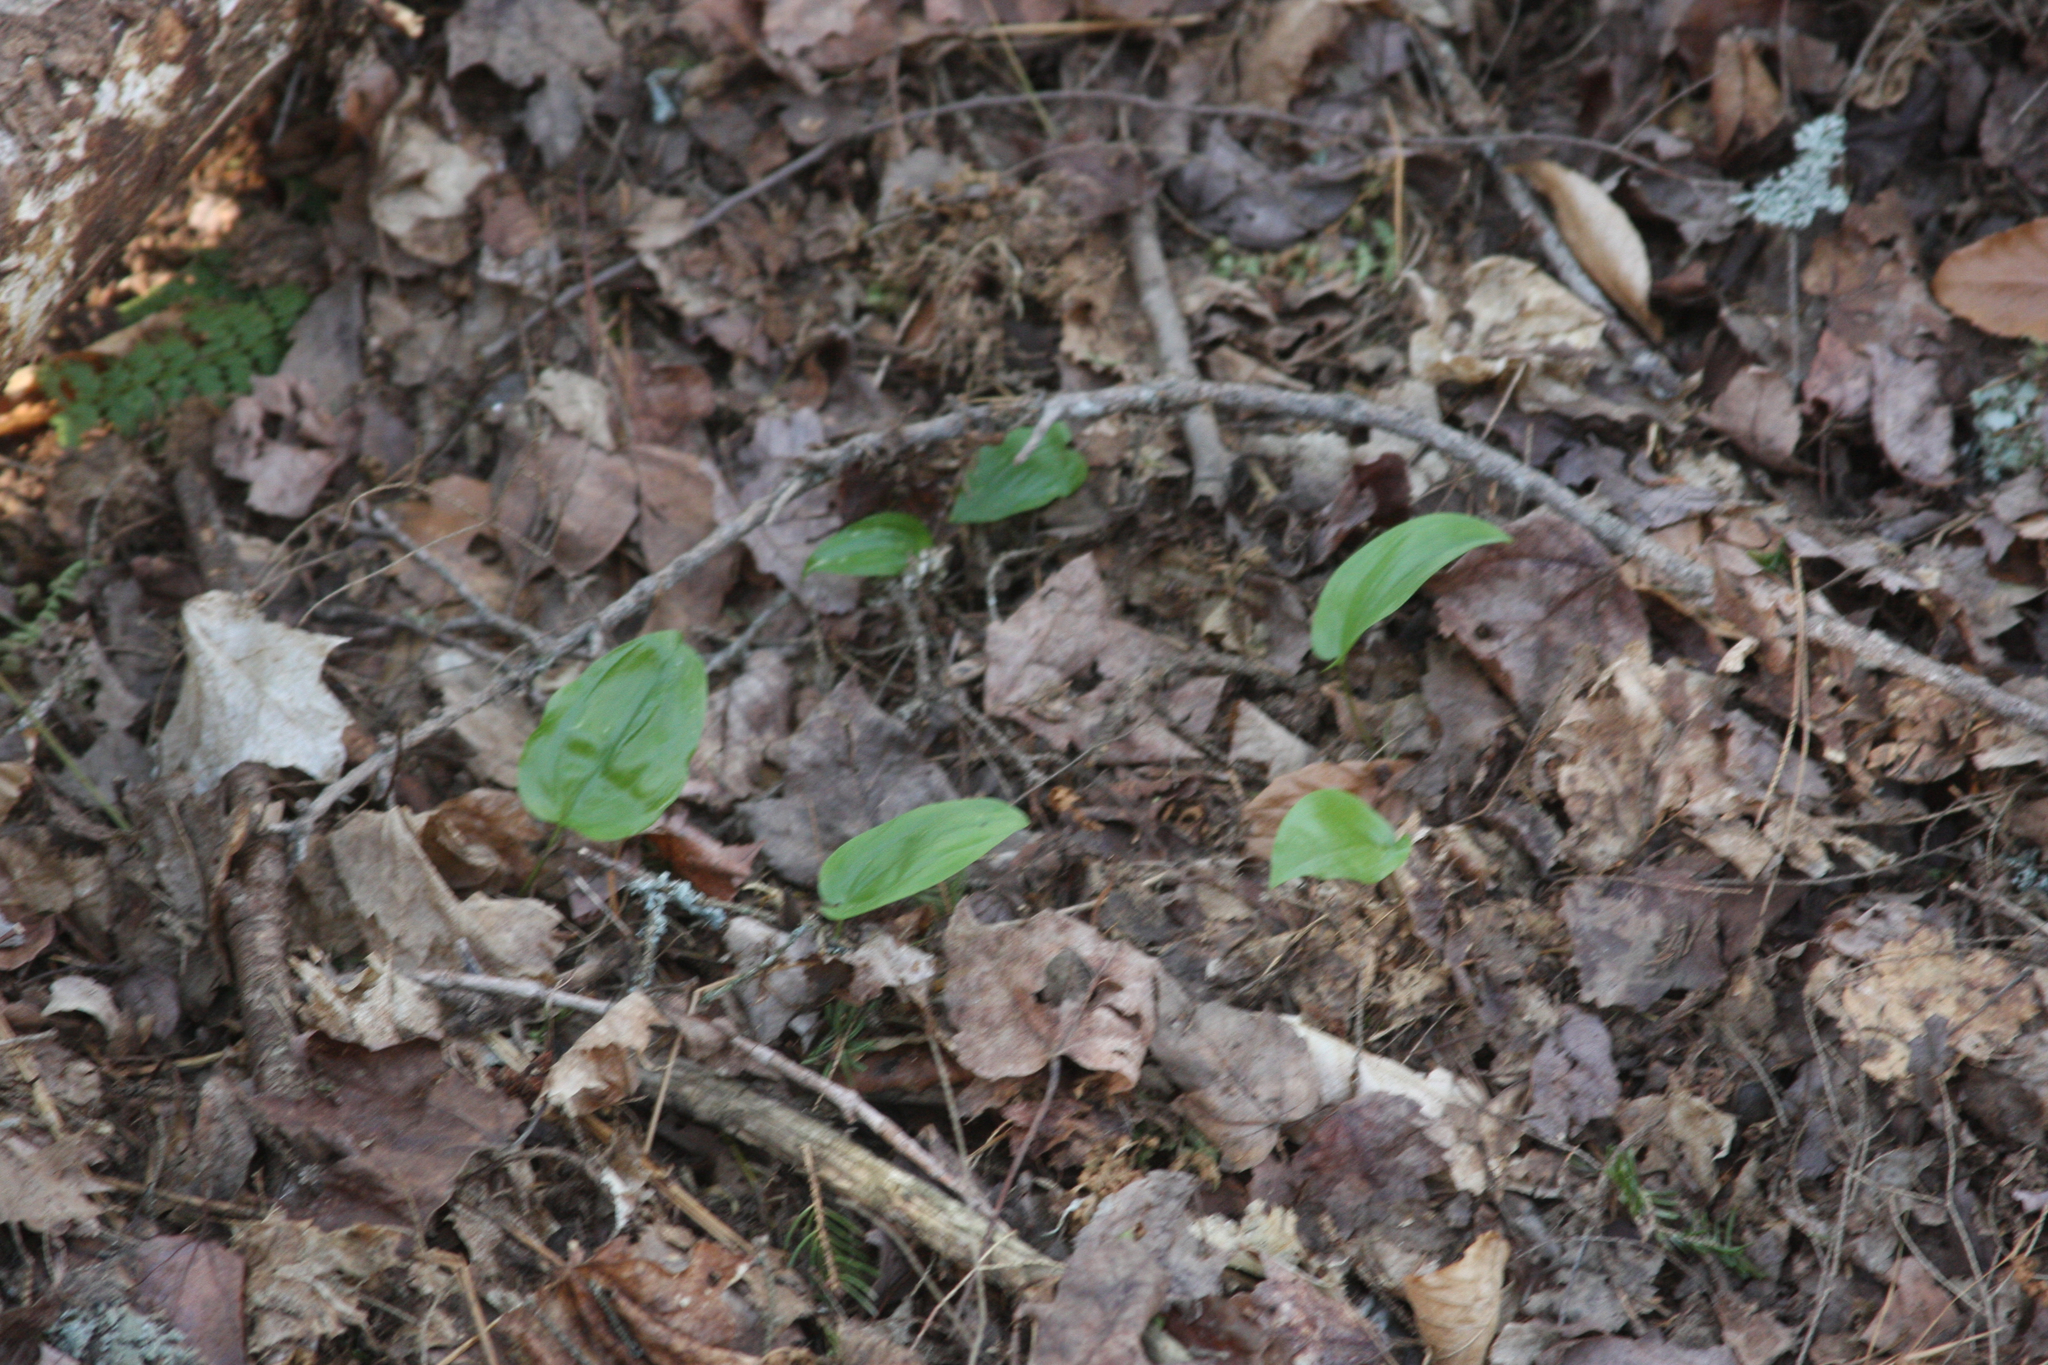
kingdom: Plantae
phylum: Tracheophyta
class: Liliopsida
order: Asparagales
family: Asparagaceae
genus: Maianthemum
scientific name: Maianthemum canadense
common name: False lily-of-the-valley
